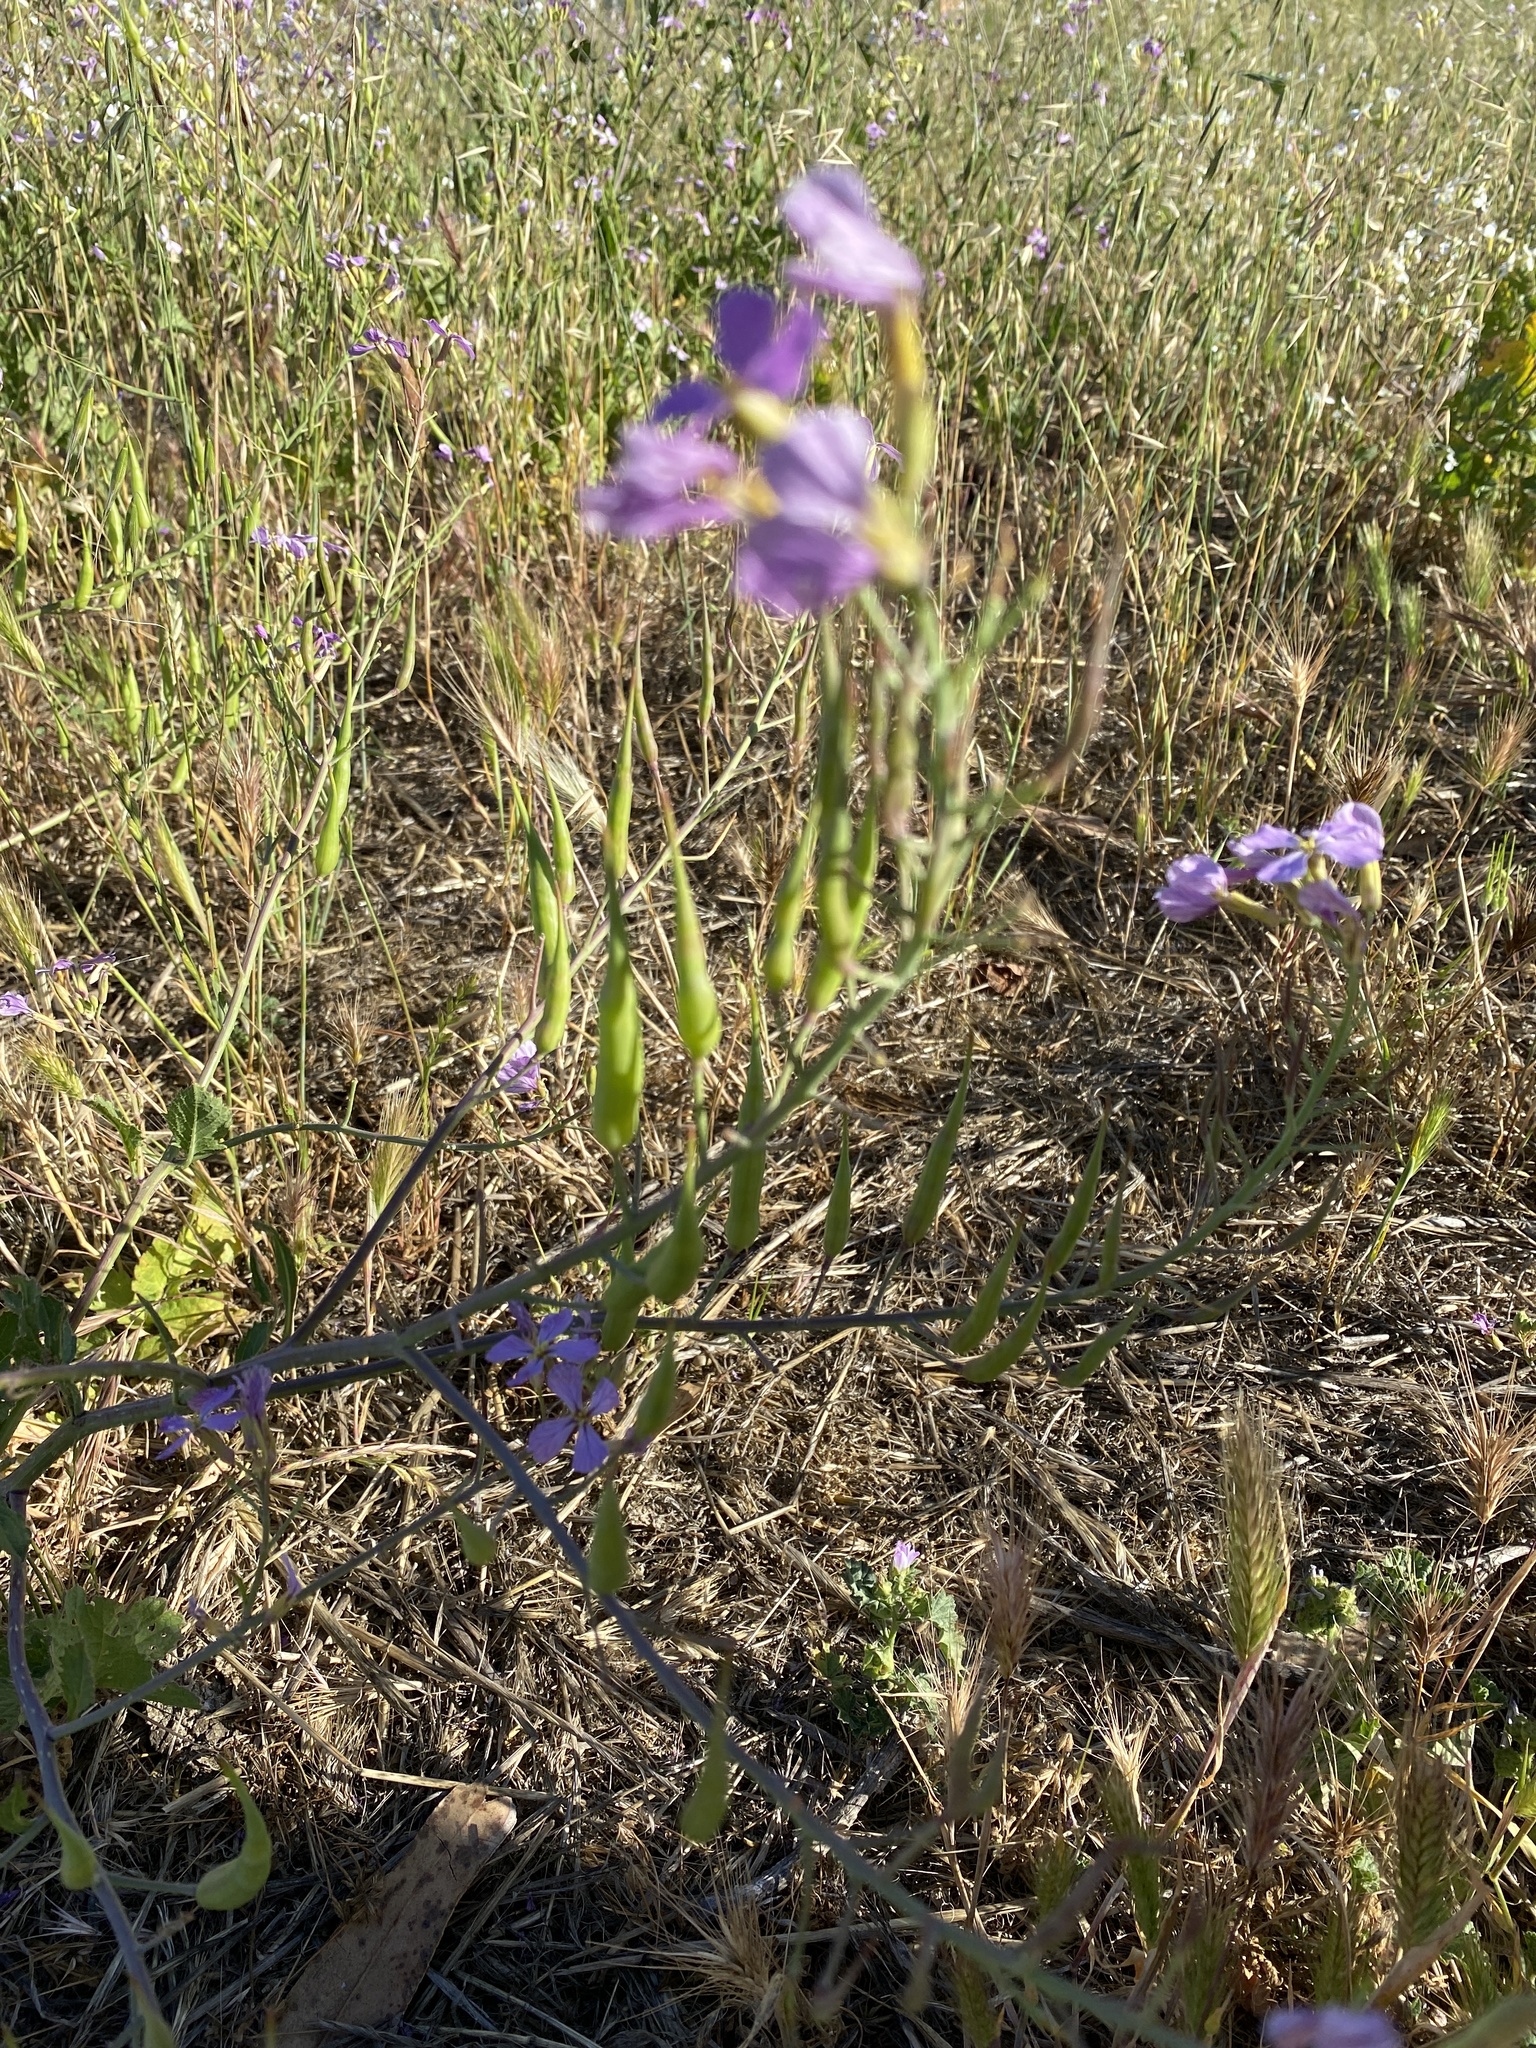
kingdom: Plantae
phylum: Tracheophyta
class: Magnoliopsida
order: Brassicales
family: Brassicaceae
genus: Raphanus
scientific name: Raphanus sativus
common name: Cultivated radish
